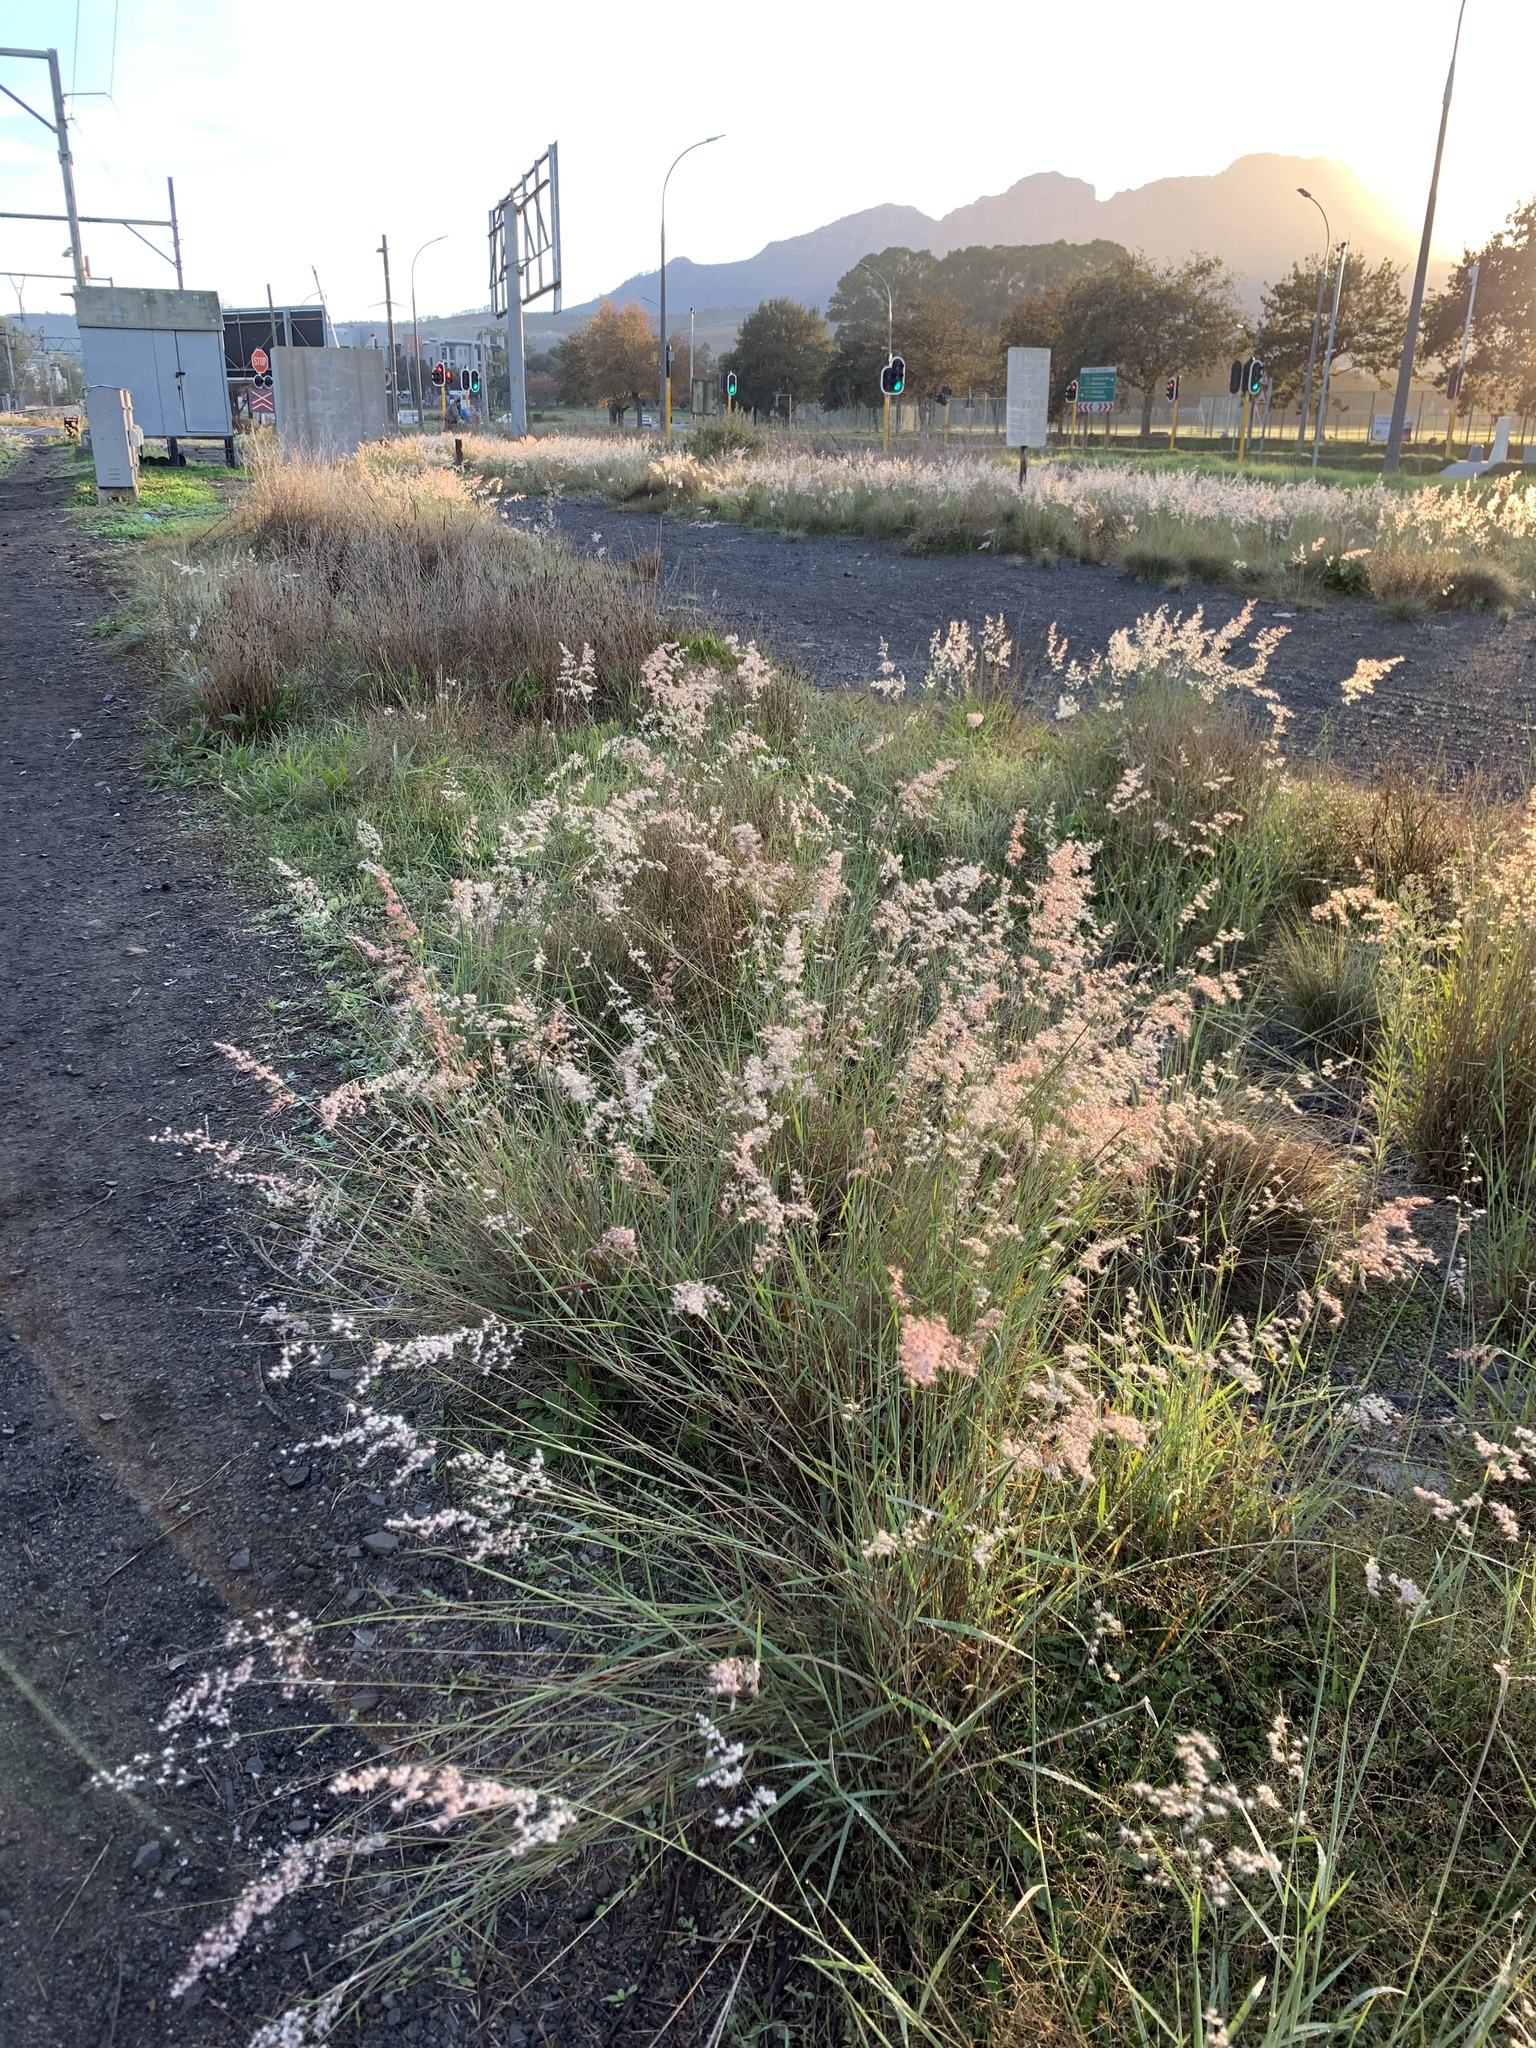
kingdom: Plantae
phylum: Tracheophyta
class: Liliopsida
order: Poales
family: Poaceae
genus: Melinis
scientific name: Melinis repens
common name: Rose natal grass
